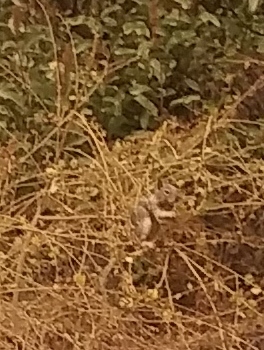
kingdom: Animalia
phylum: Chordata
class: Mammalia
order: Rodentia
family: Sciuridae
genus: Otospermophilus
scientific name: Otospermophilus beecheyi
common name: California ground squirrel
